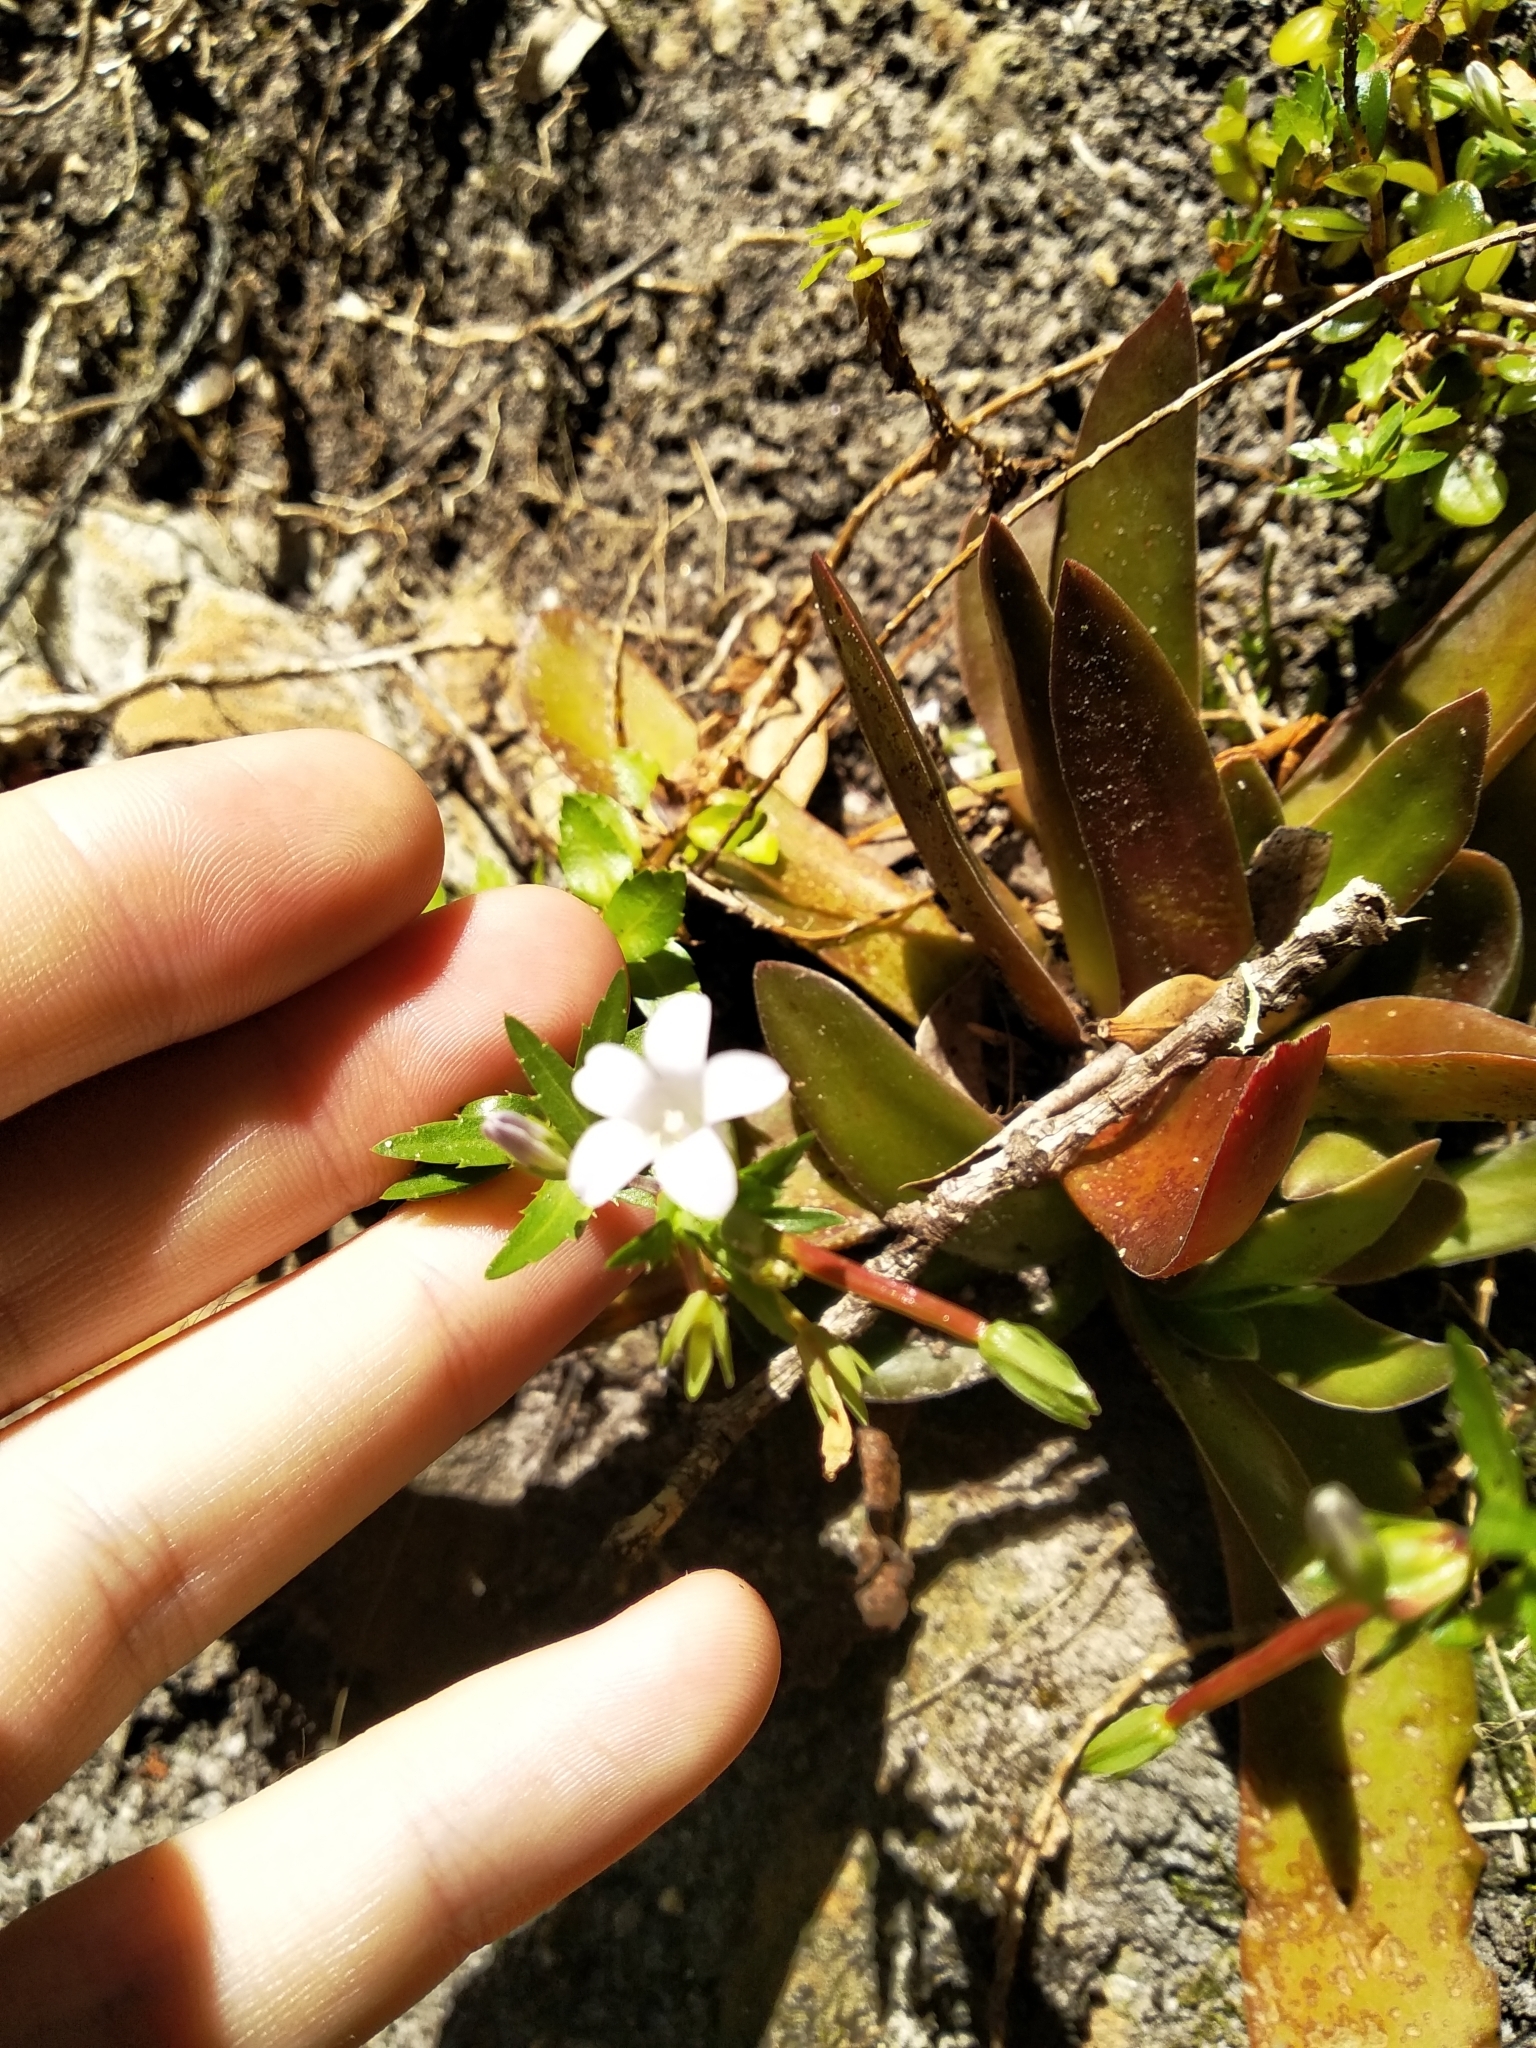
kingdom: Plantae
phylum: Tracheophyta
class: Magnoliopsida
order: Asterales
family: Campanulaceae
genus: Prismatocarpus
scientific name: Prismatocarpus nitidus
